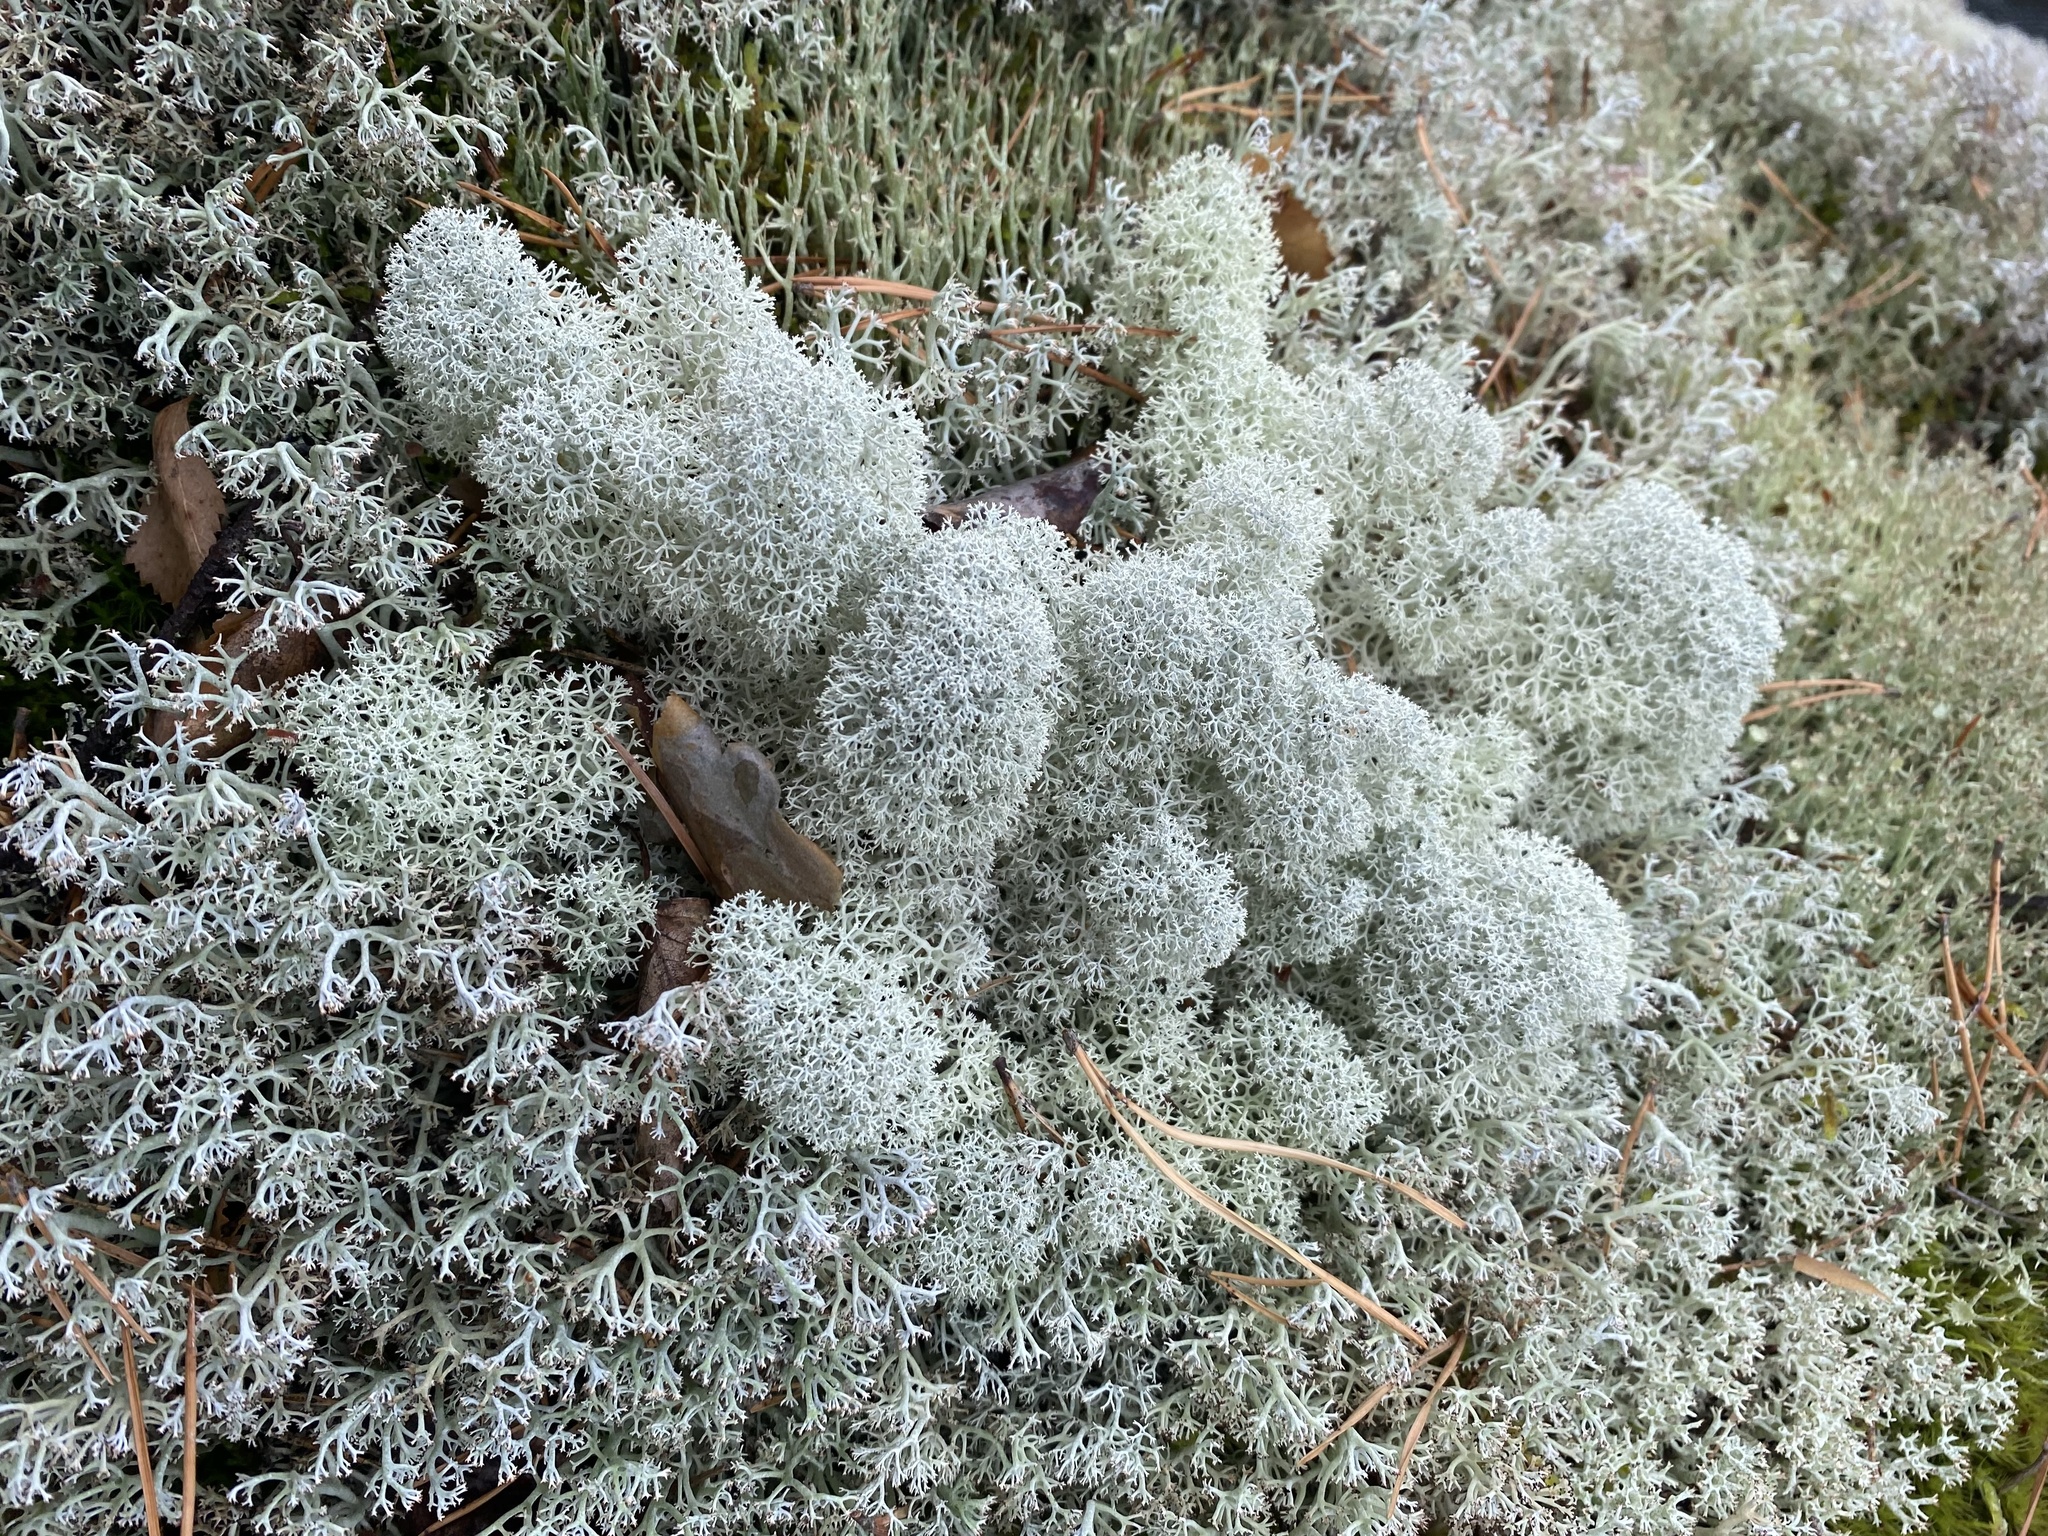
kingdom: Fungi
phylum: Ascomycota
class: Lecanoromycetes
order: Lecanorales
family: Cladoniaceae
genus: Cladonia
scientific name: Cladonia stellaris
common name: Star-tipped reindeer lichen
